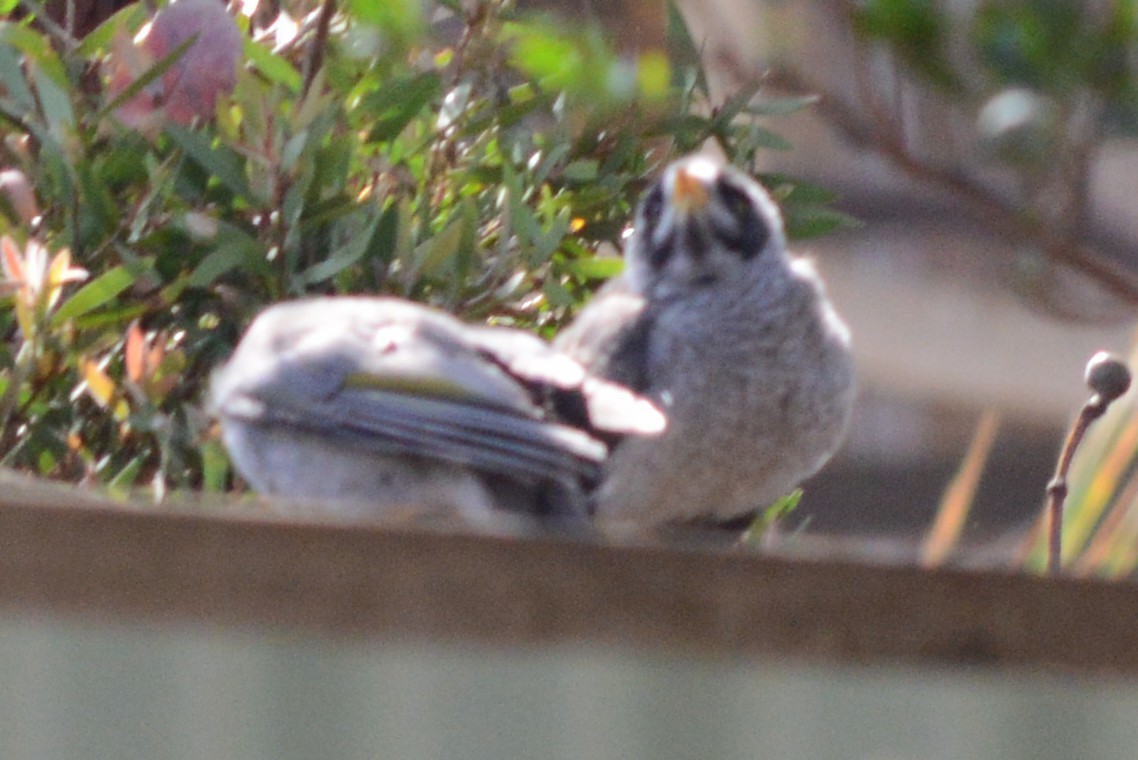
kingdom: Animalia
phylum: Chordata
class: Aves
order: Passeriformes
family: Meliphagidae
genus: Manorina
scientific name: Manorina melanocephala
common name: Noisy miner
